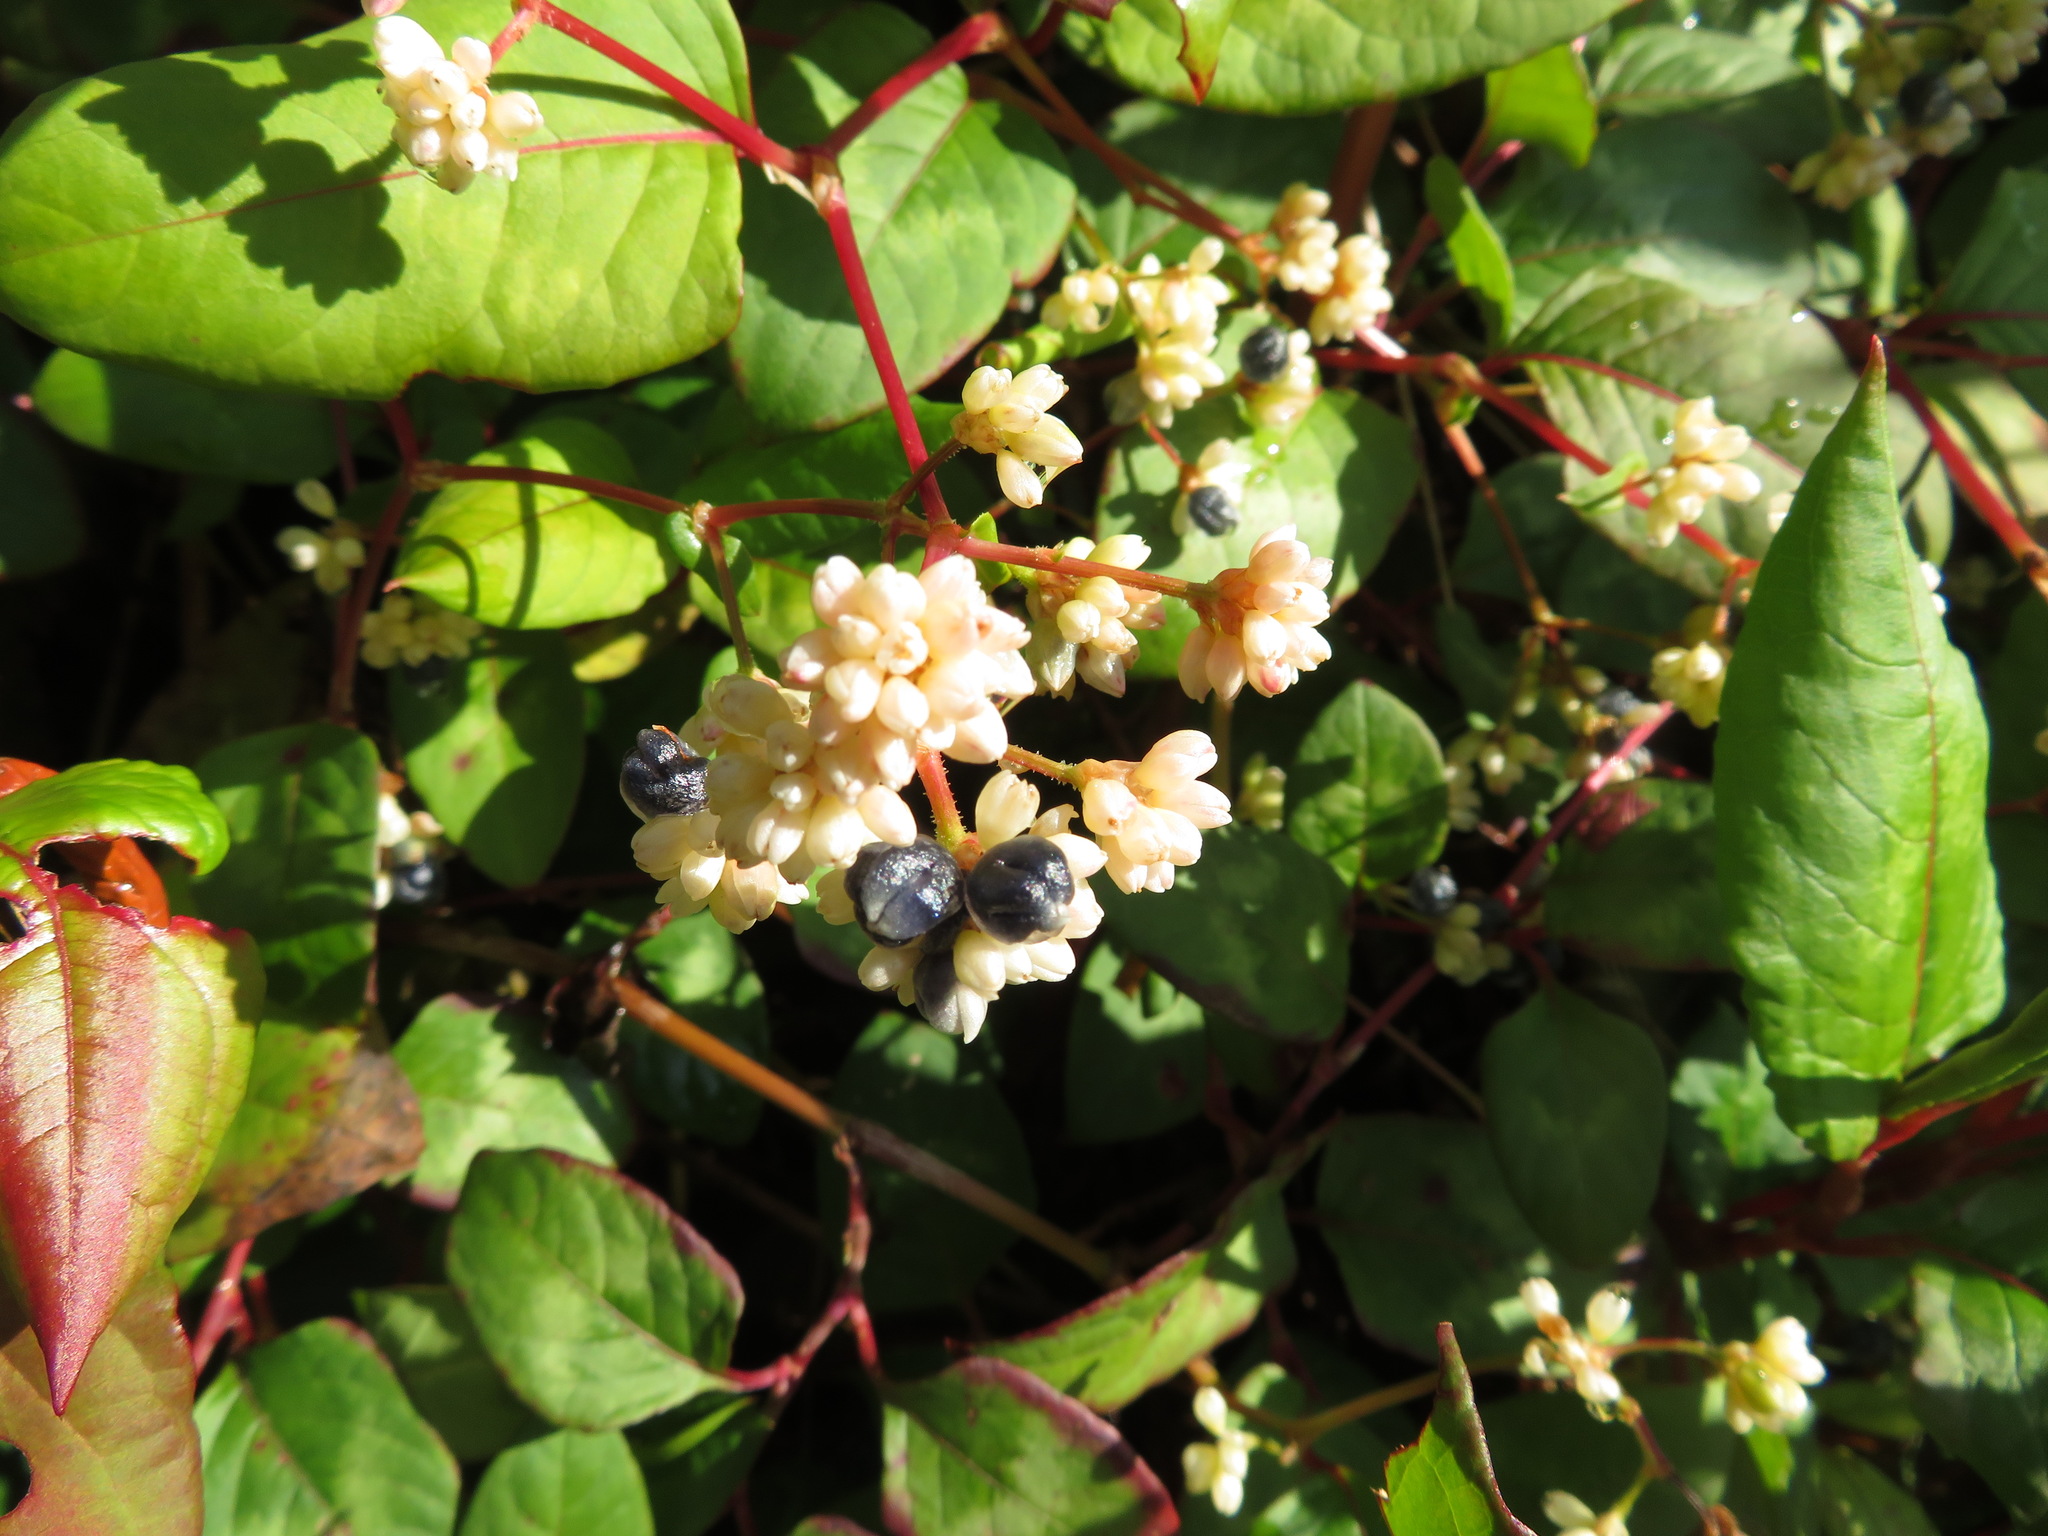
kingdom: Plantae
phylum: Tracheophyta
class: Magnoliopsida
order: Caryophyllales
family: Polygonaceae
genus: Persicaria
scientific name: Persicaria chinensis
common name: Chinese knotweed
